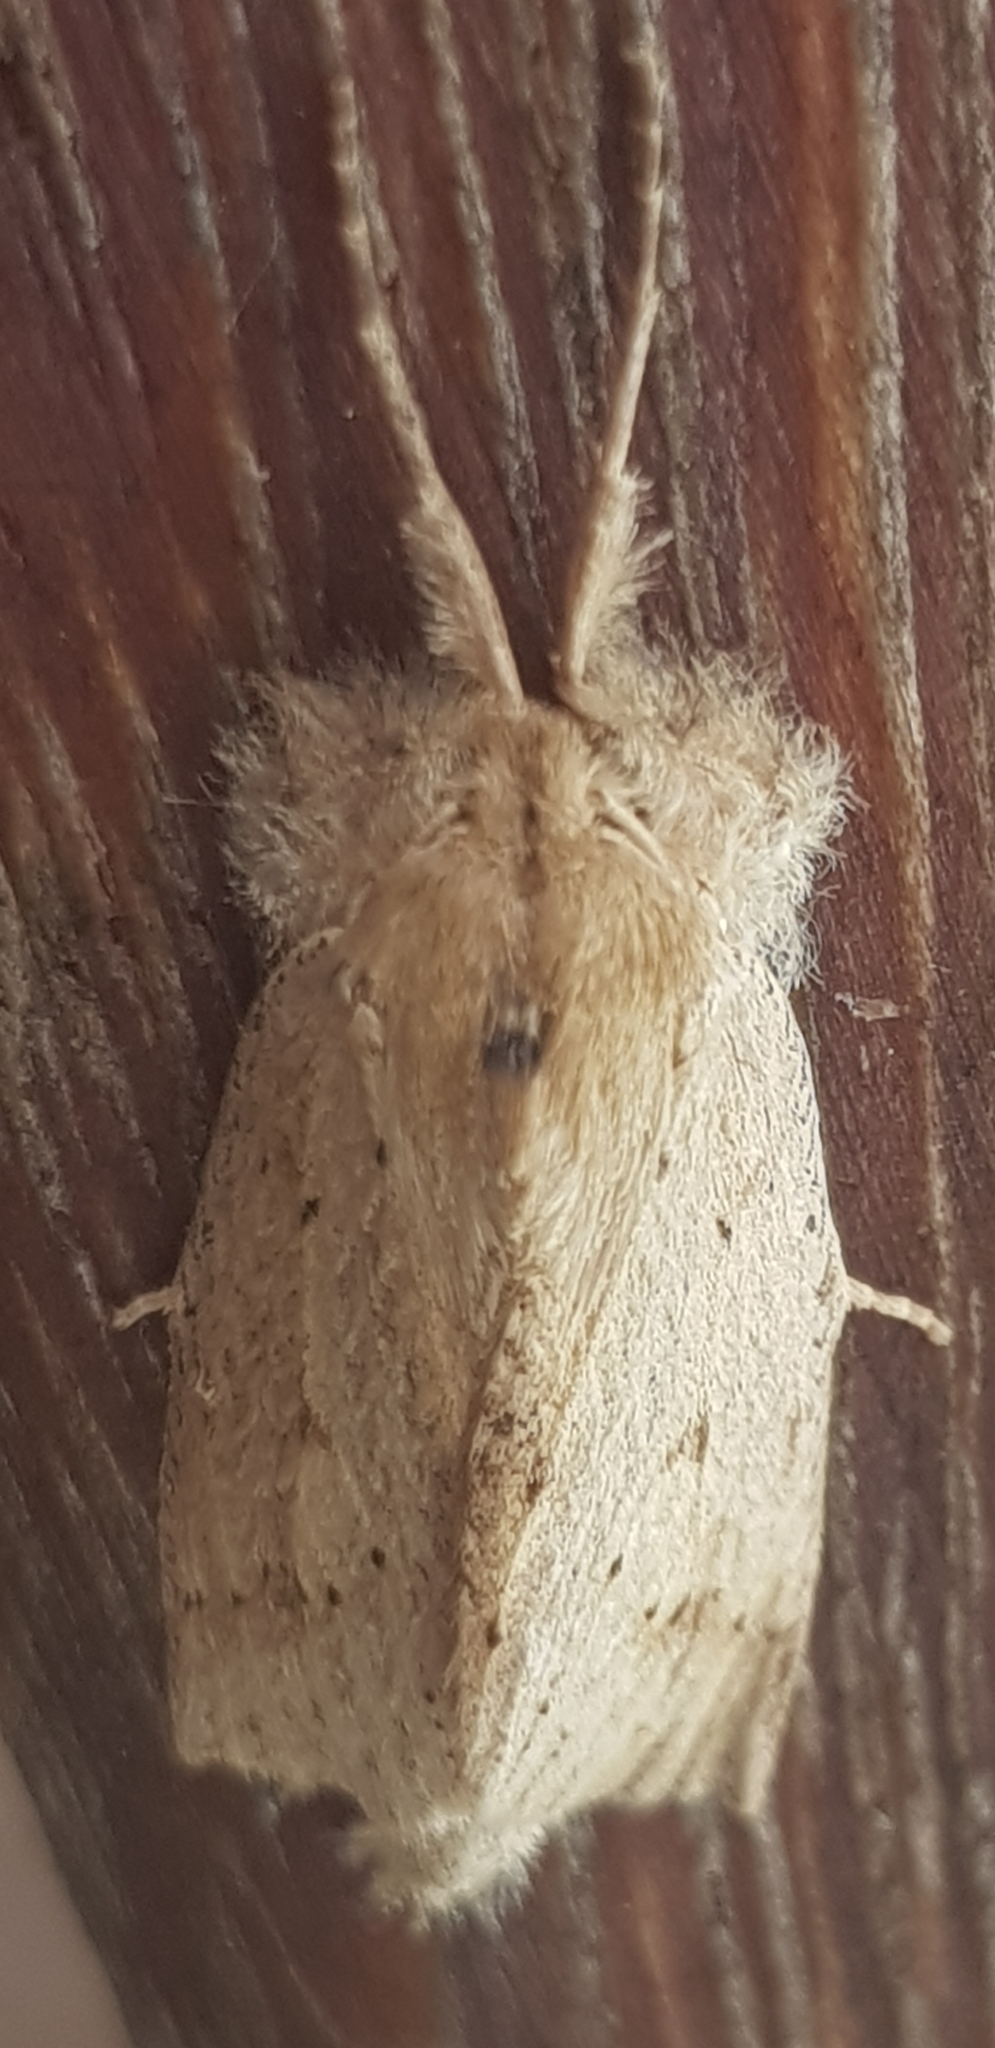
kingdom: Animalia
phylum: Arthropoda
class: Insecta
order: Lepidoptera
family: Geometridae
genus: Declana
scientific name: Declana leptomera
